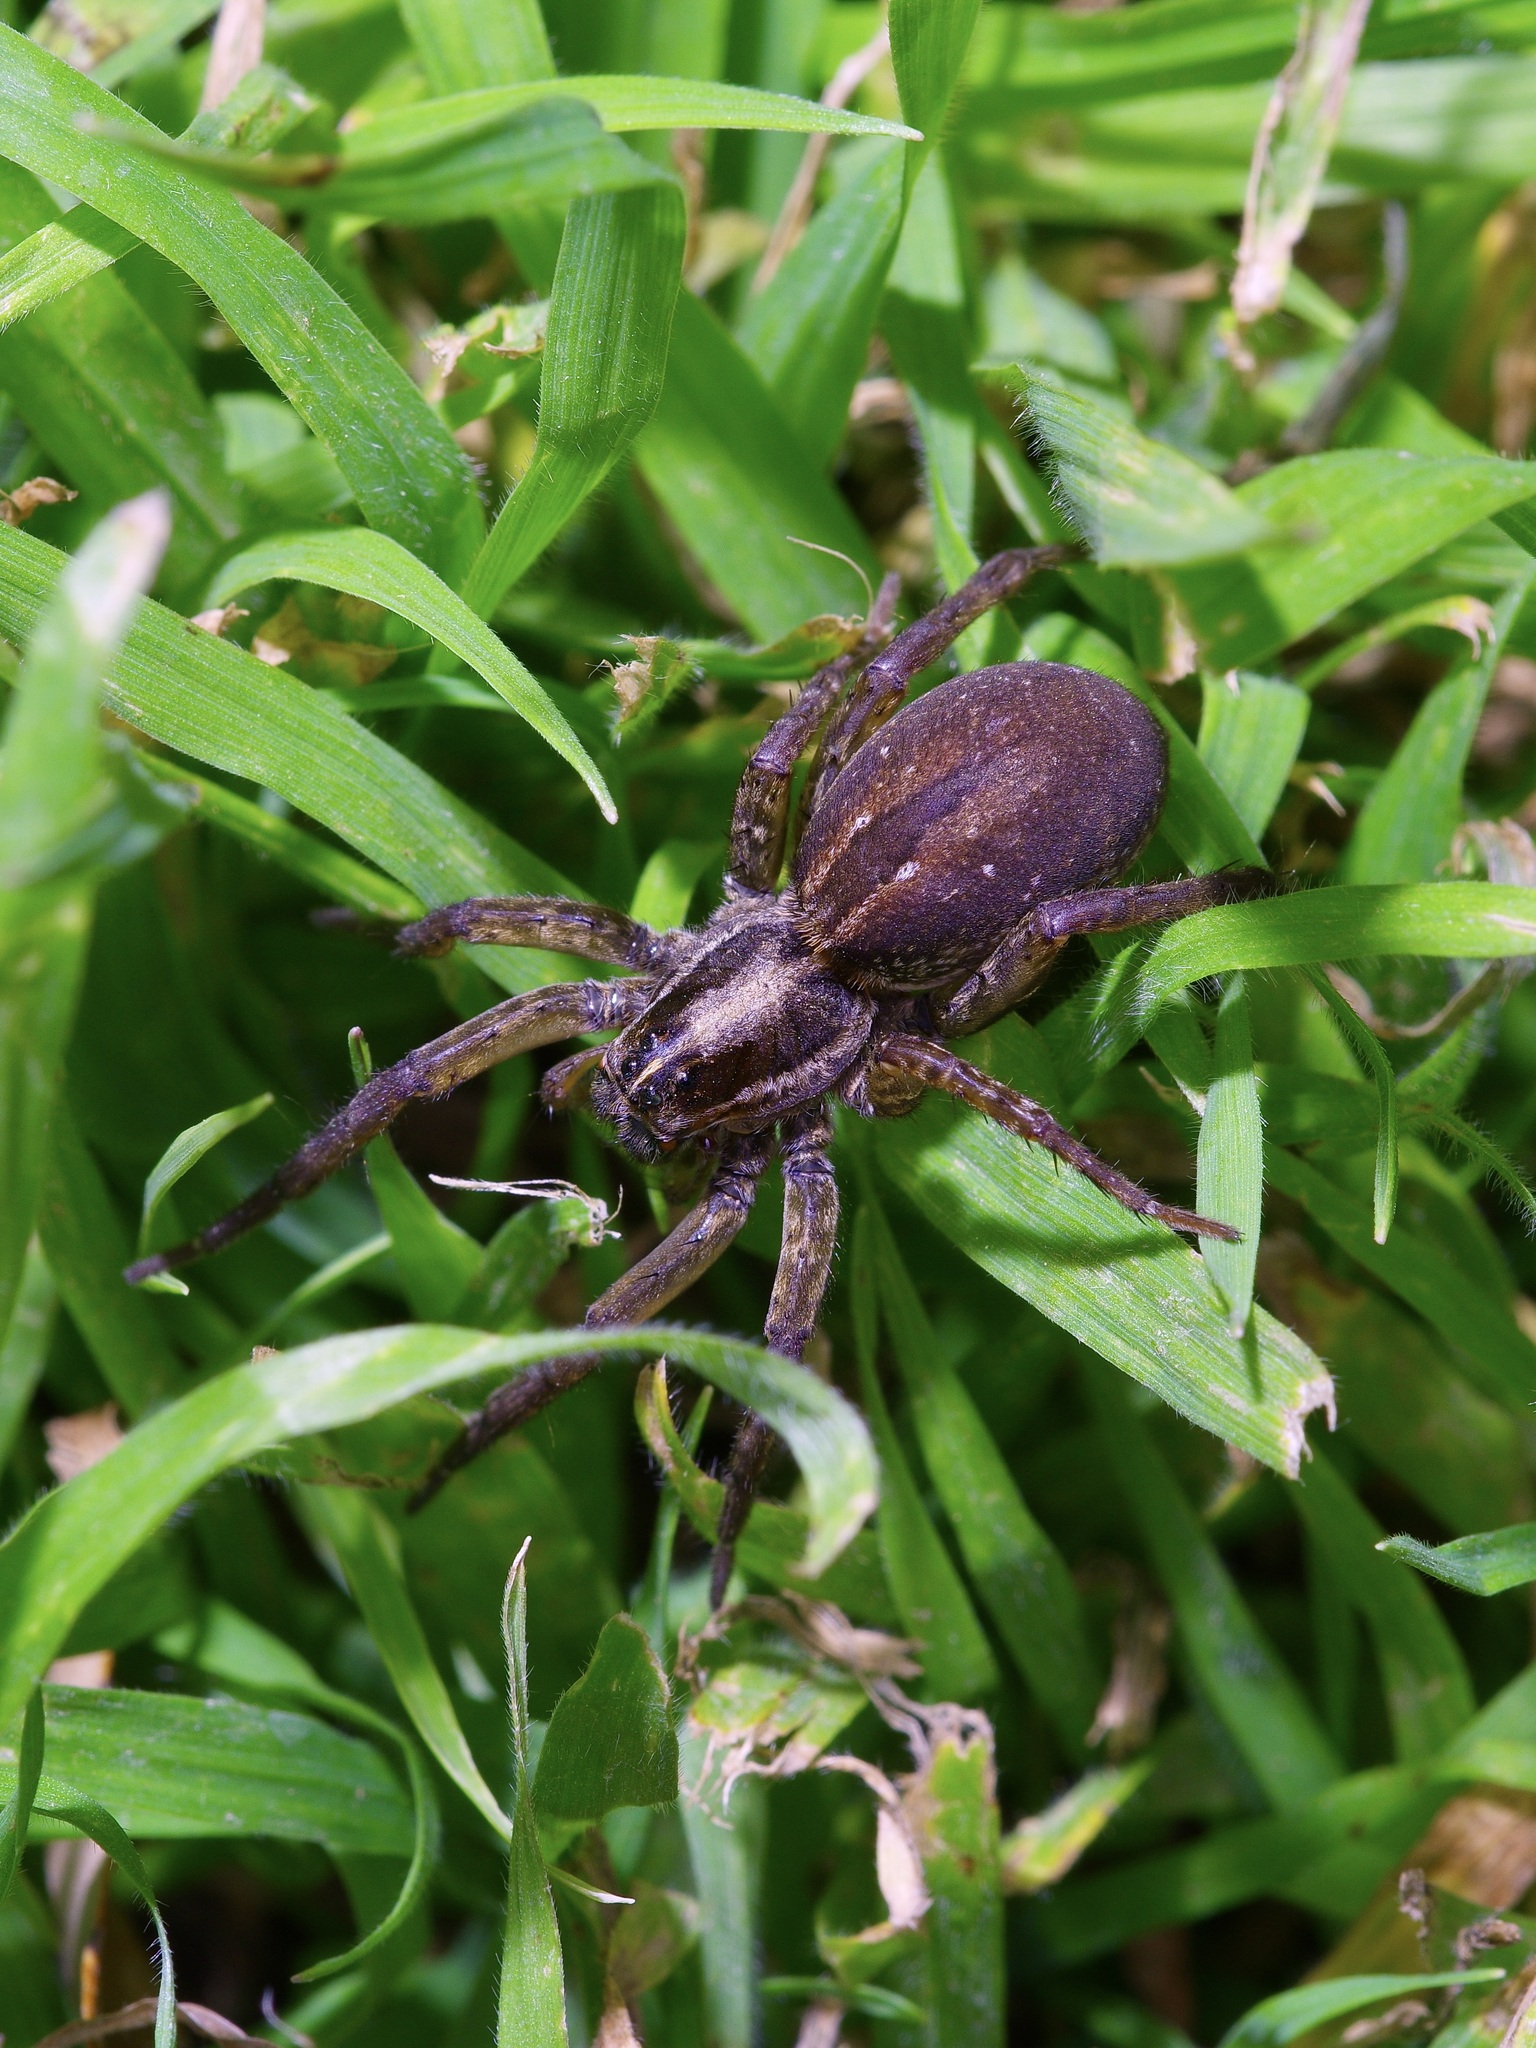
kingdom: Animalia
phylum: Arthropoda
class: Arachnida
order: Araneae
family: Lycosidae
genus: Tigrosa
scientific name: Tigrosa annexa
